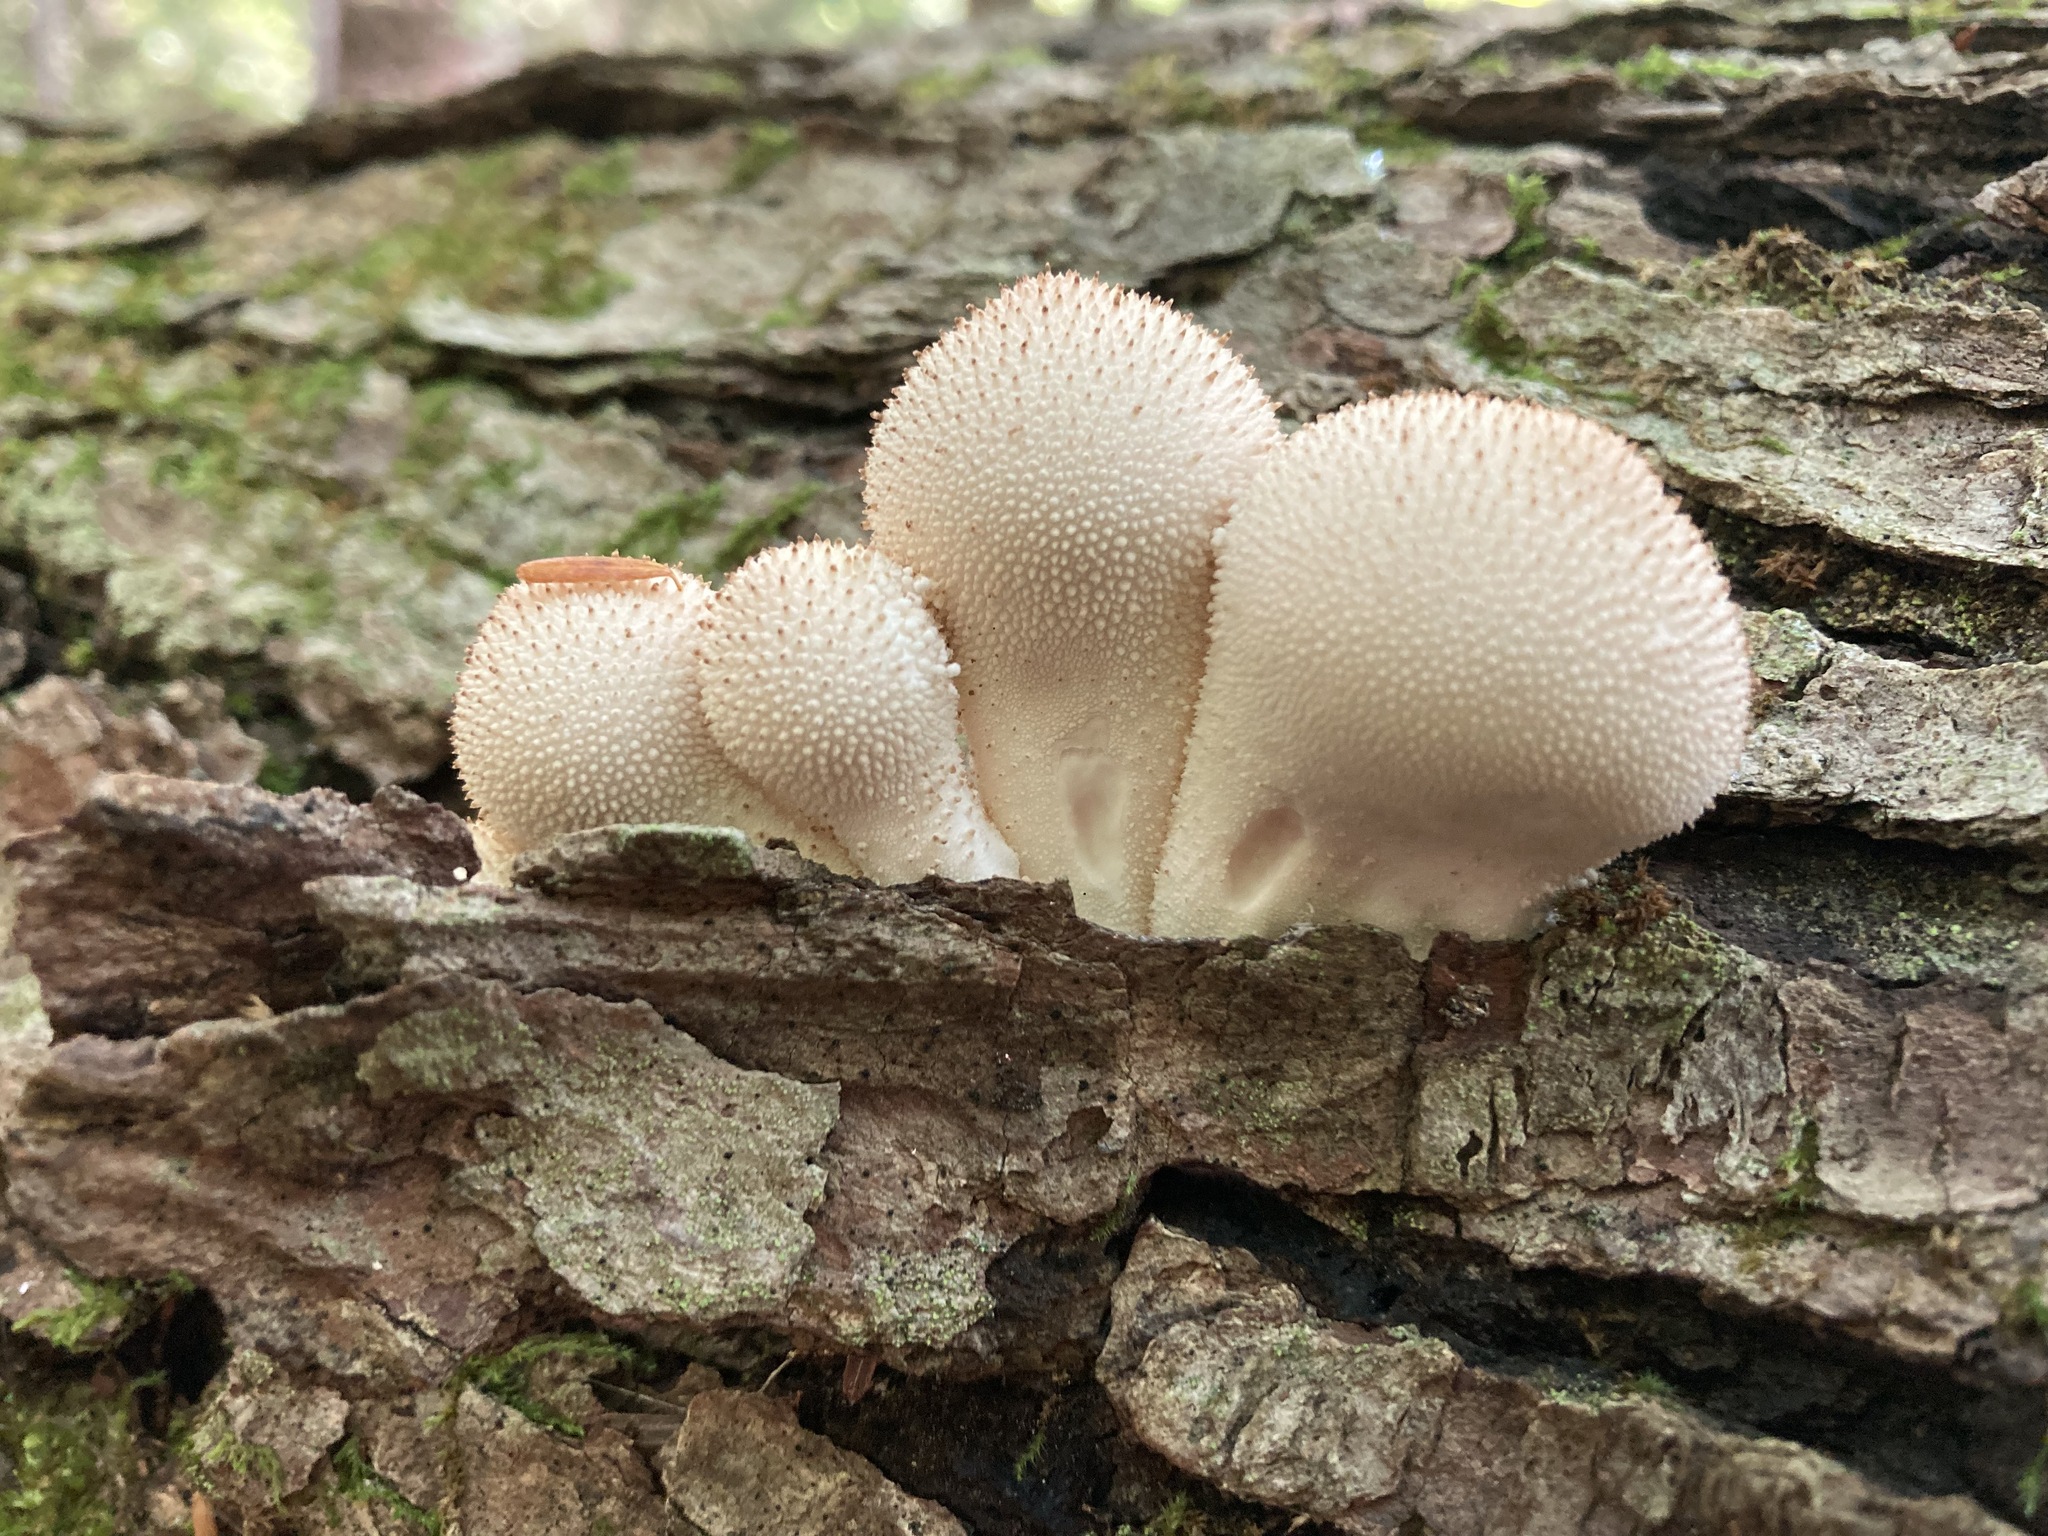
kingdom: Fungi
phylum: Basidiomycota
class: Agaricomycetes
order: Agaricales
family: Lycoperdaceae
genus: Lycoperdon
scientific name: Lycoperdon perlatum
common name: Common puffball
